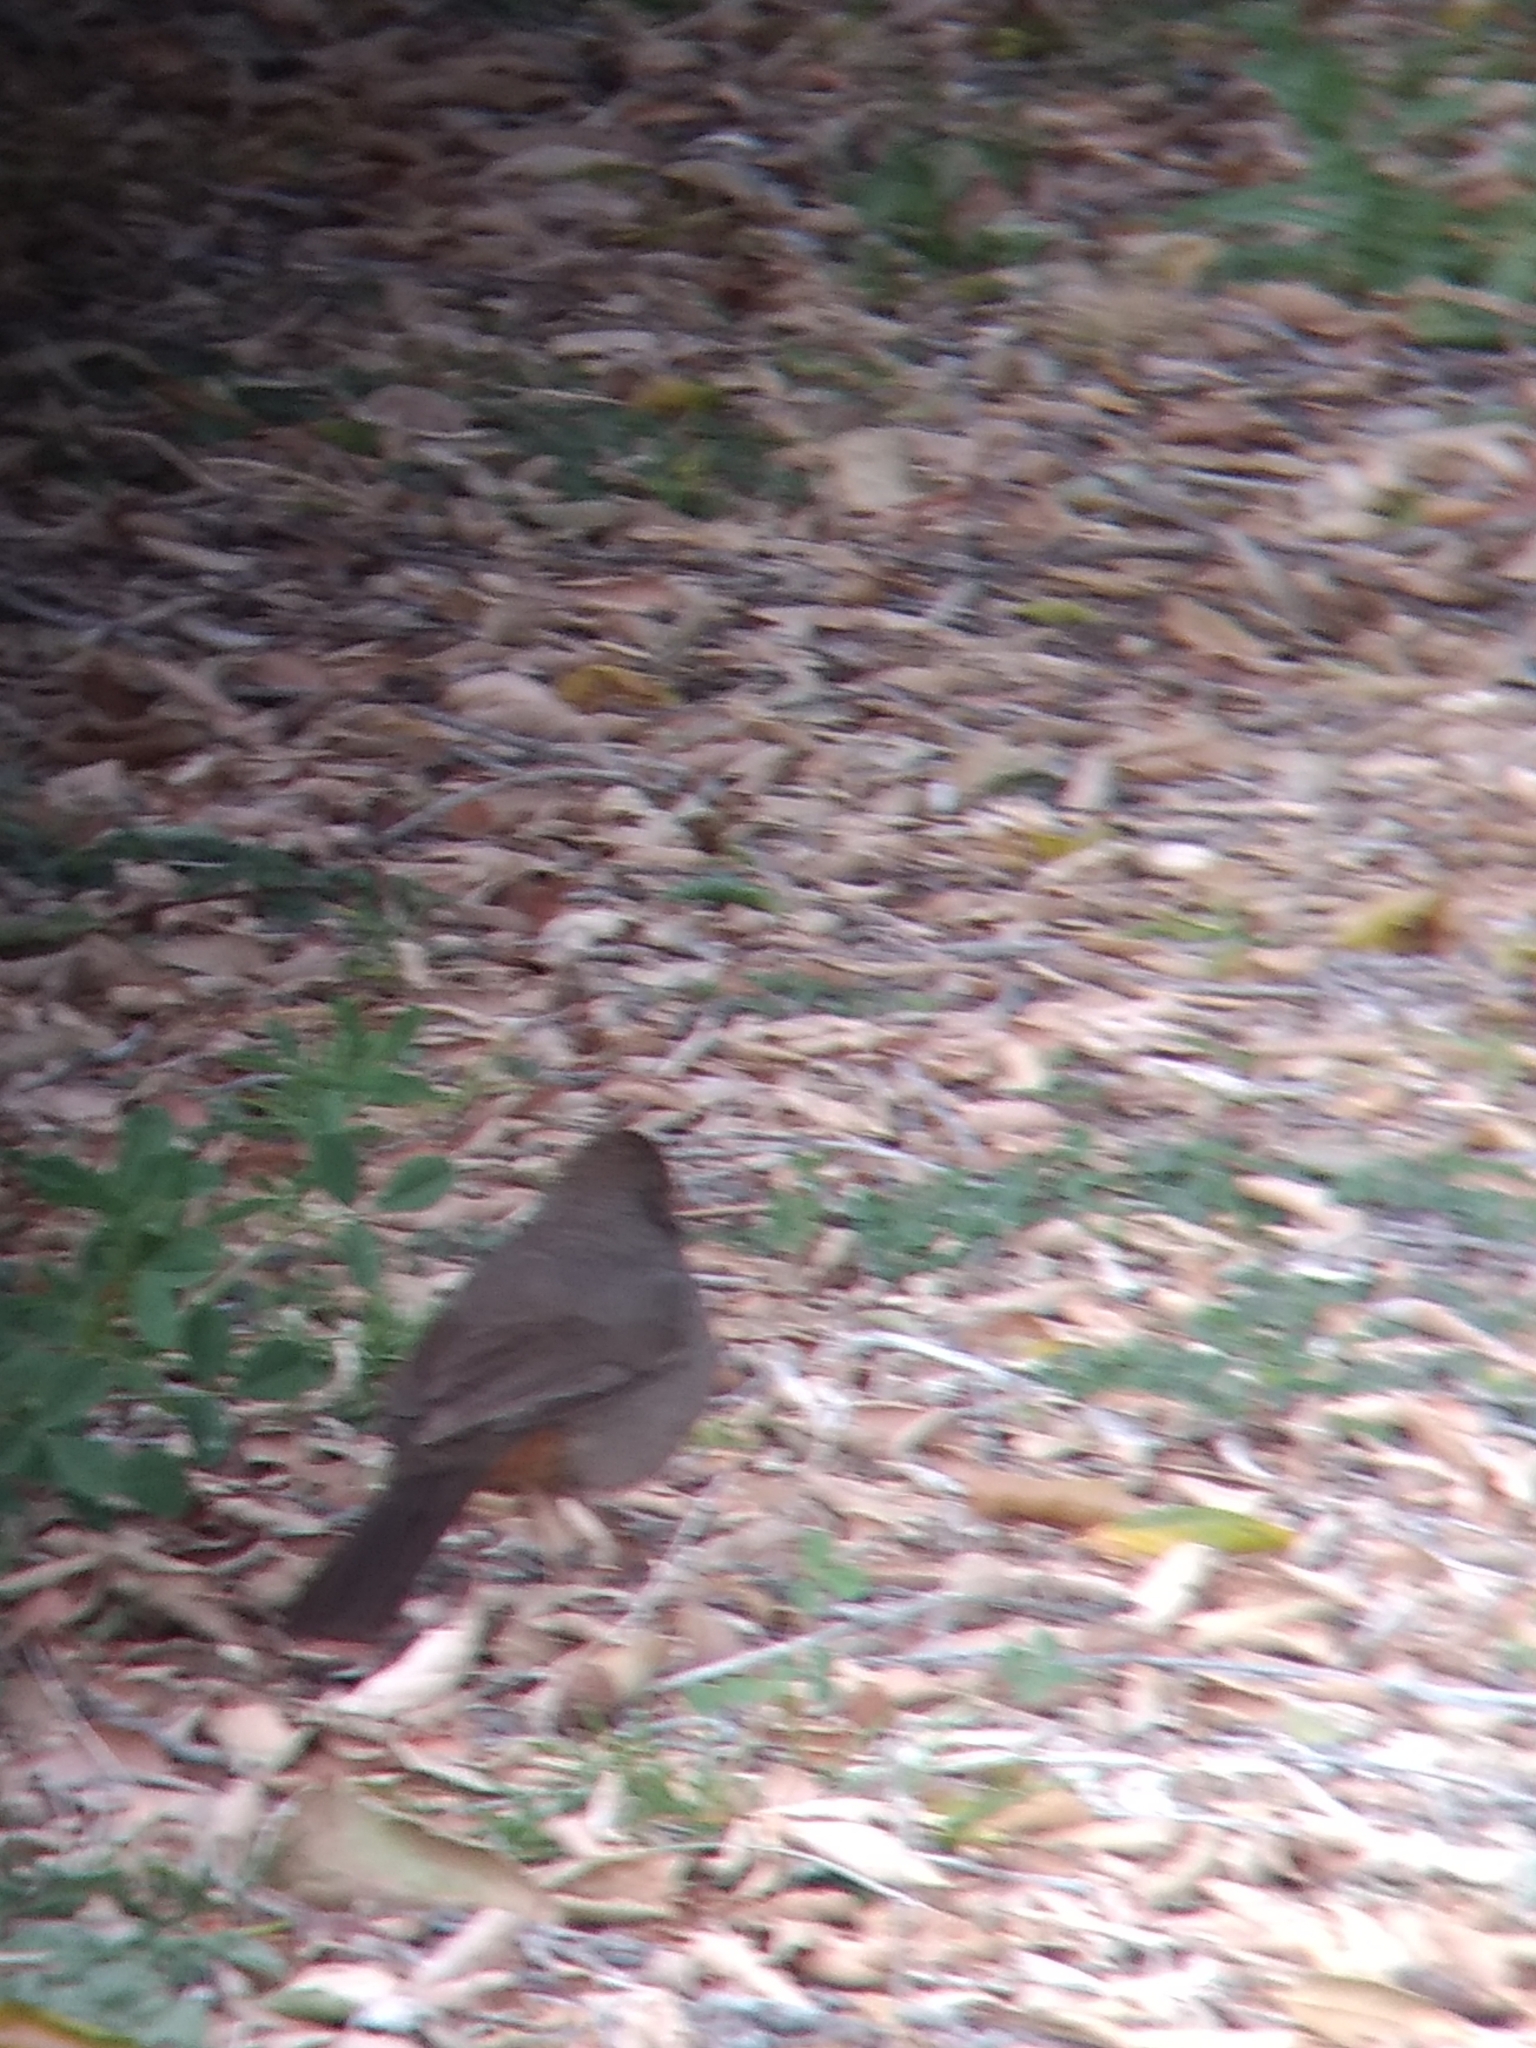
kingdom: Animalia
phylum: Chordata
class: Aves
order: Passeriformes
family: Passerellidae
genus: Melozone
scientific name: Melozone crissalis
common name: California towhee
